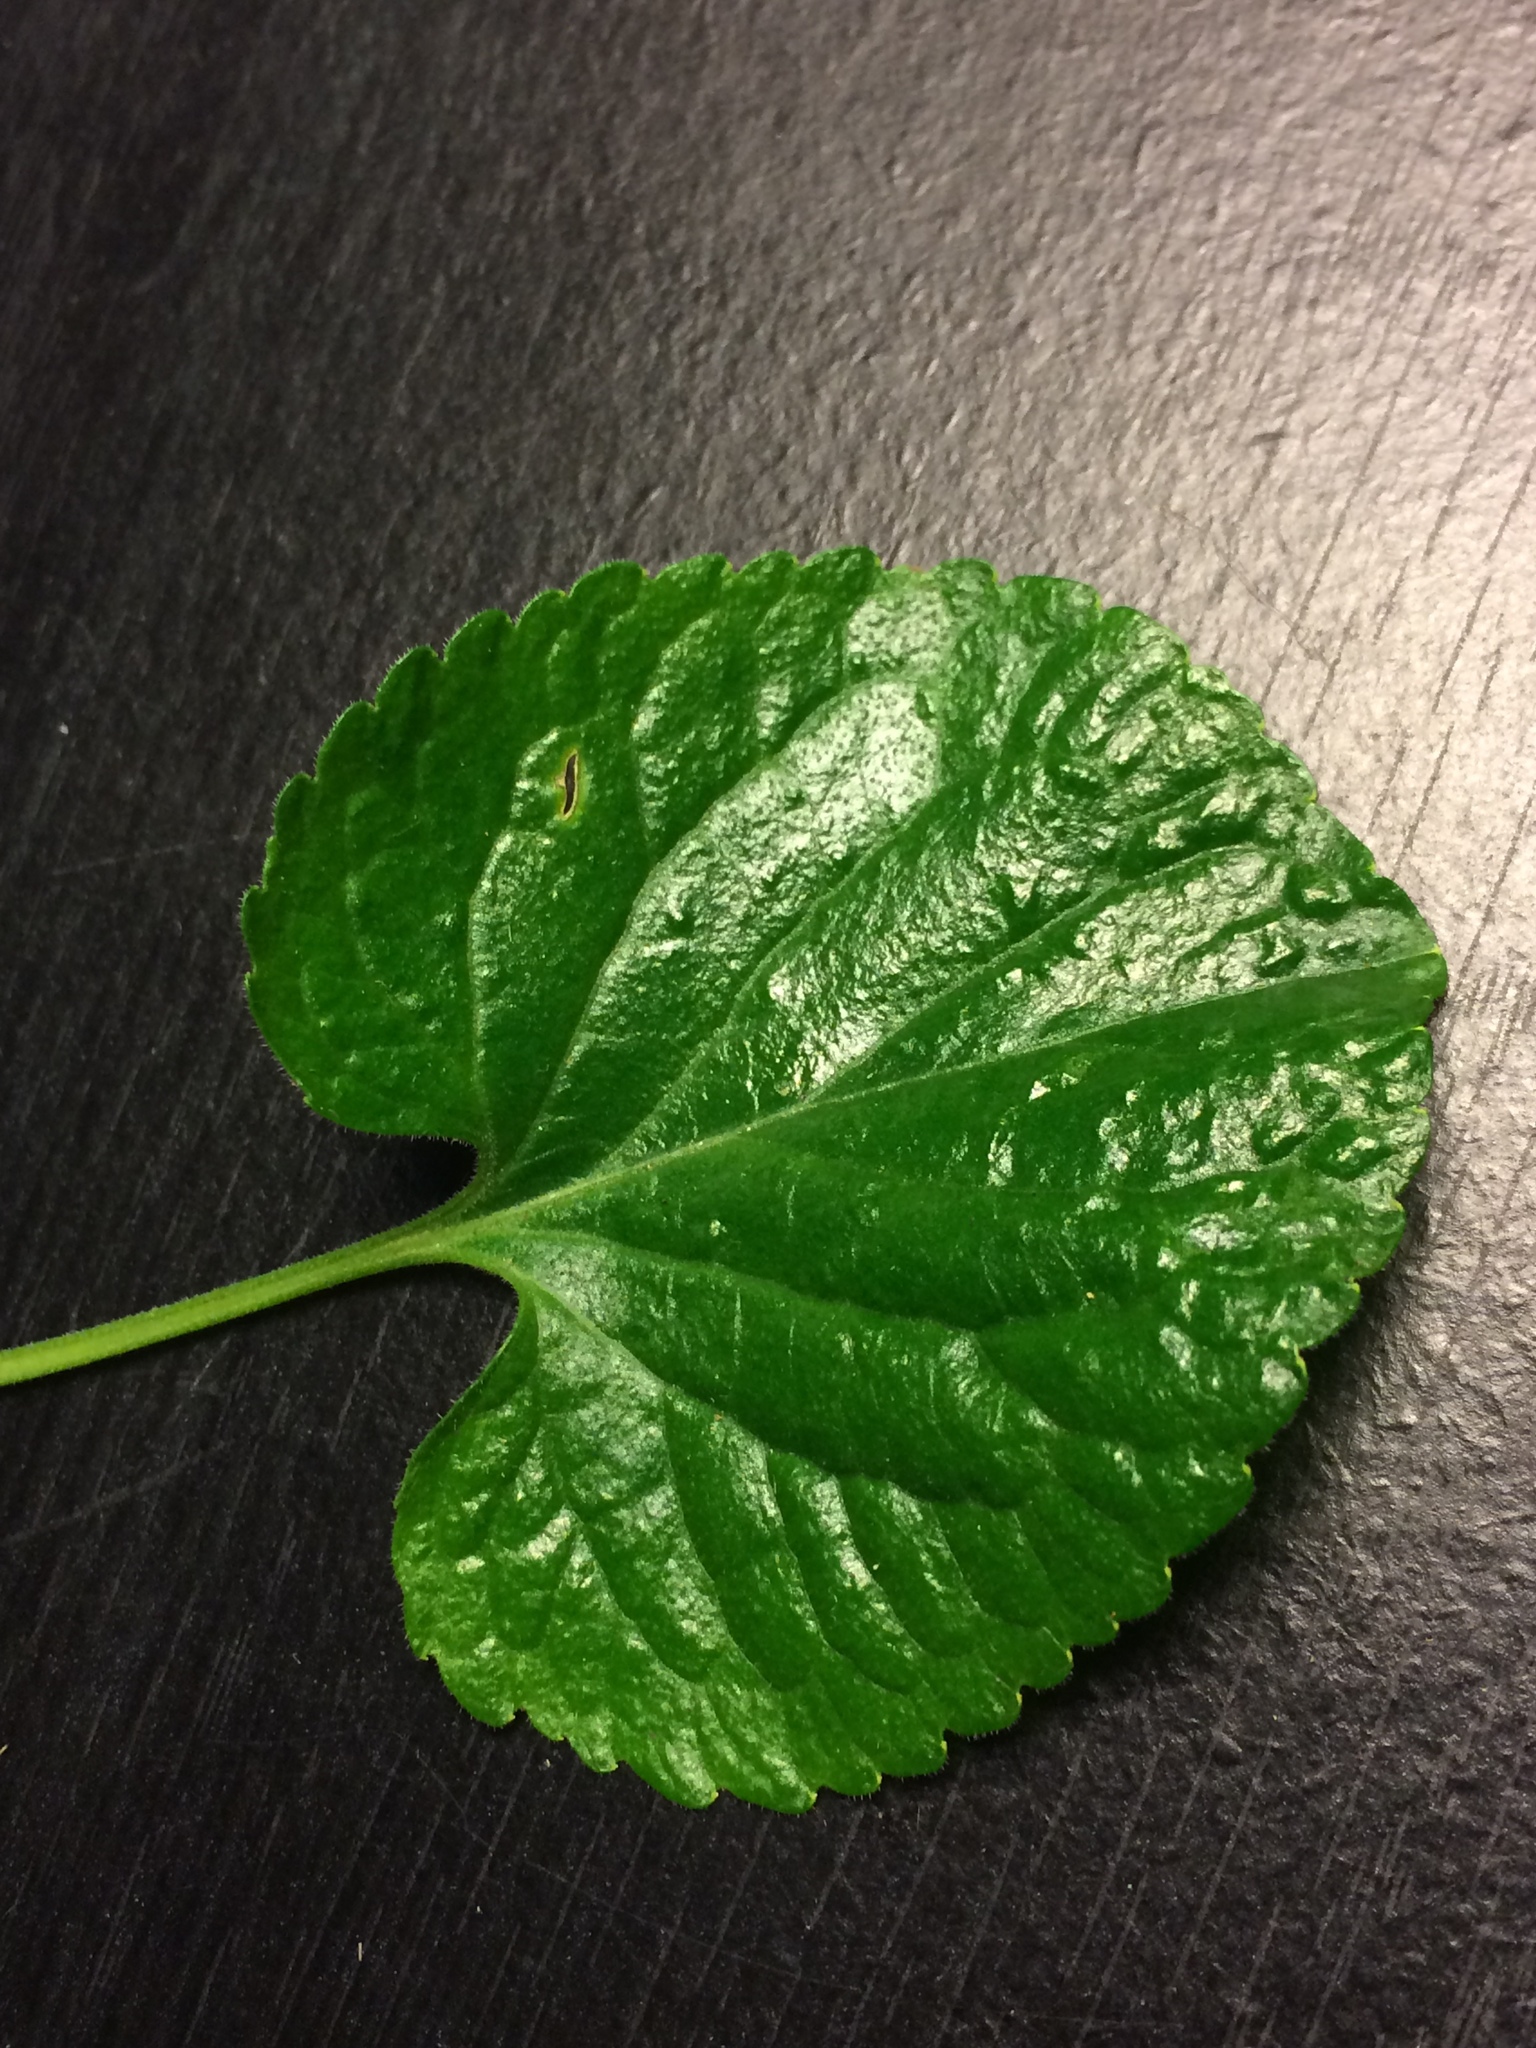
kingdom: Plantae
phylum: Tracheophyta
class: Magnoliopsida
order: Malpighiales
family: Violaceae
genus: Viola
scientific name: Viola odorata
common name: Sweet violet
